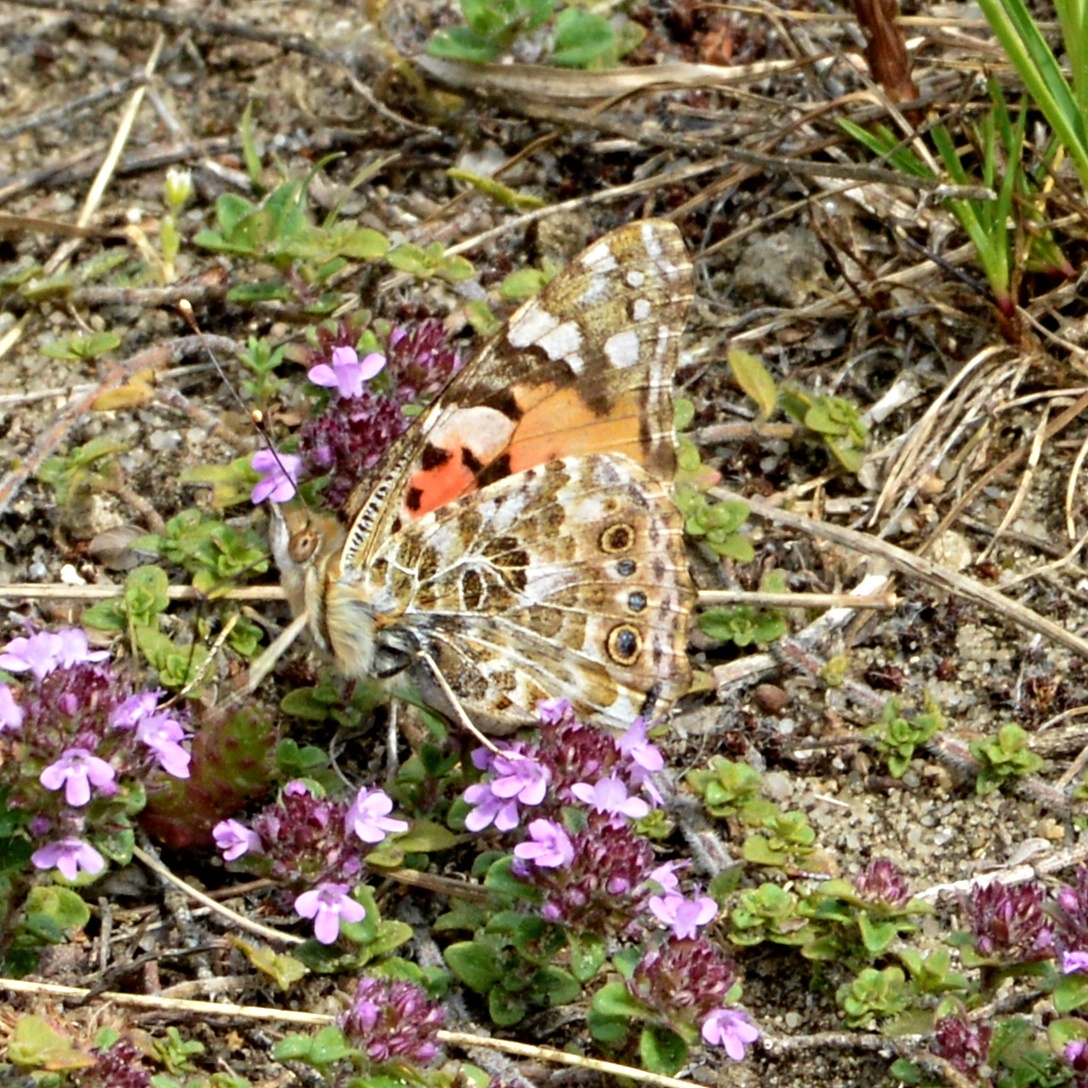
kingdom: Animalia
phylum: Arthropoda
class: Insecta
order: Lepidoptera
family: Nymphalidae
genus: Vanessa
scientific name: Vanessa cardui
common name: Painted lady
